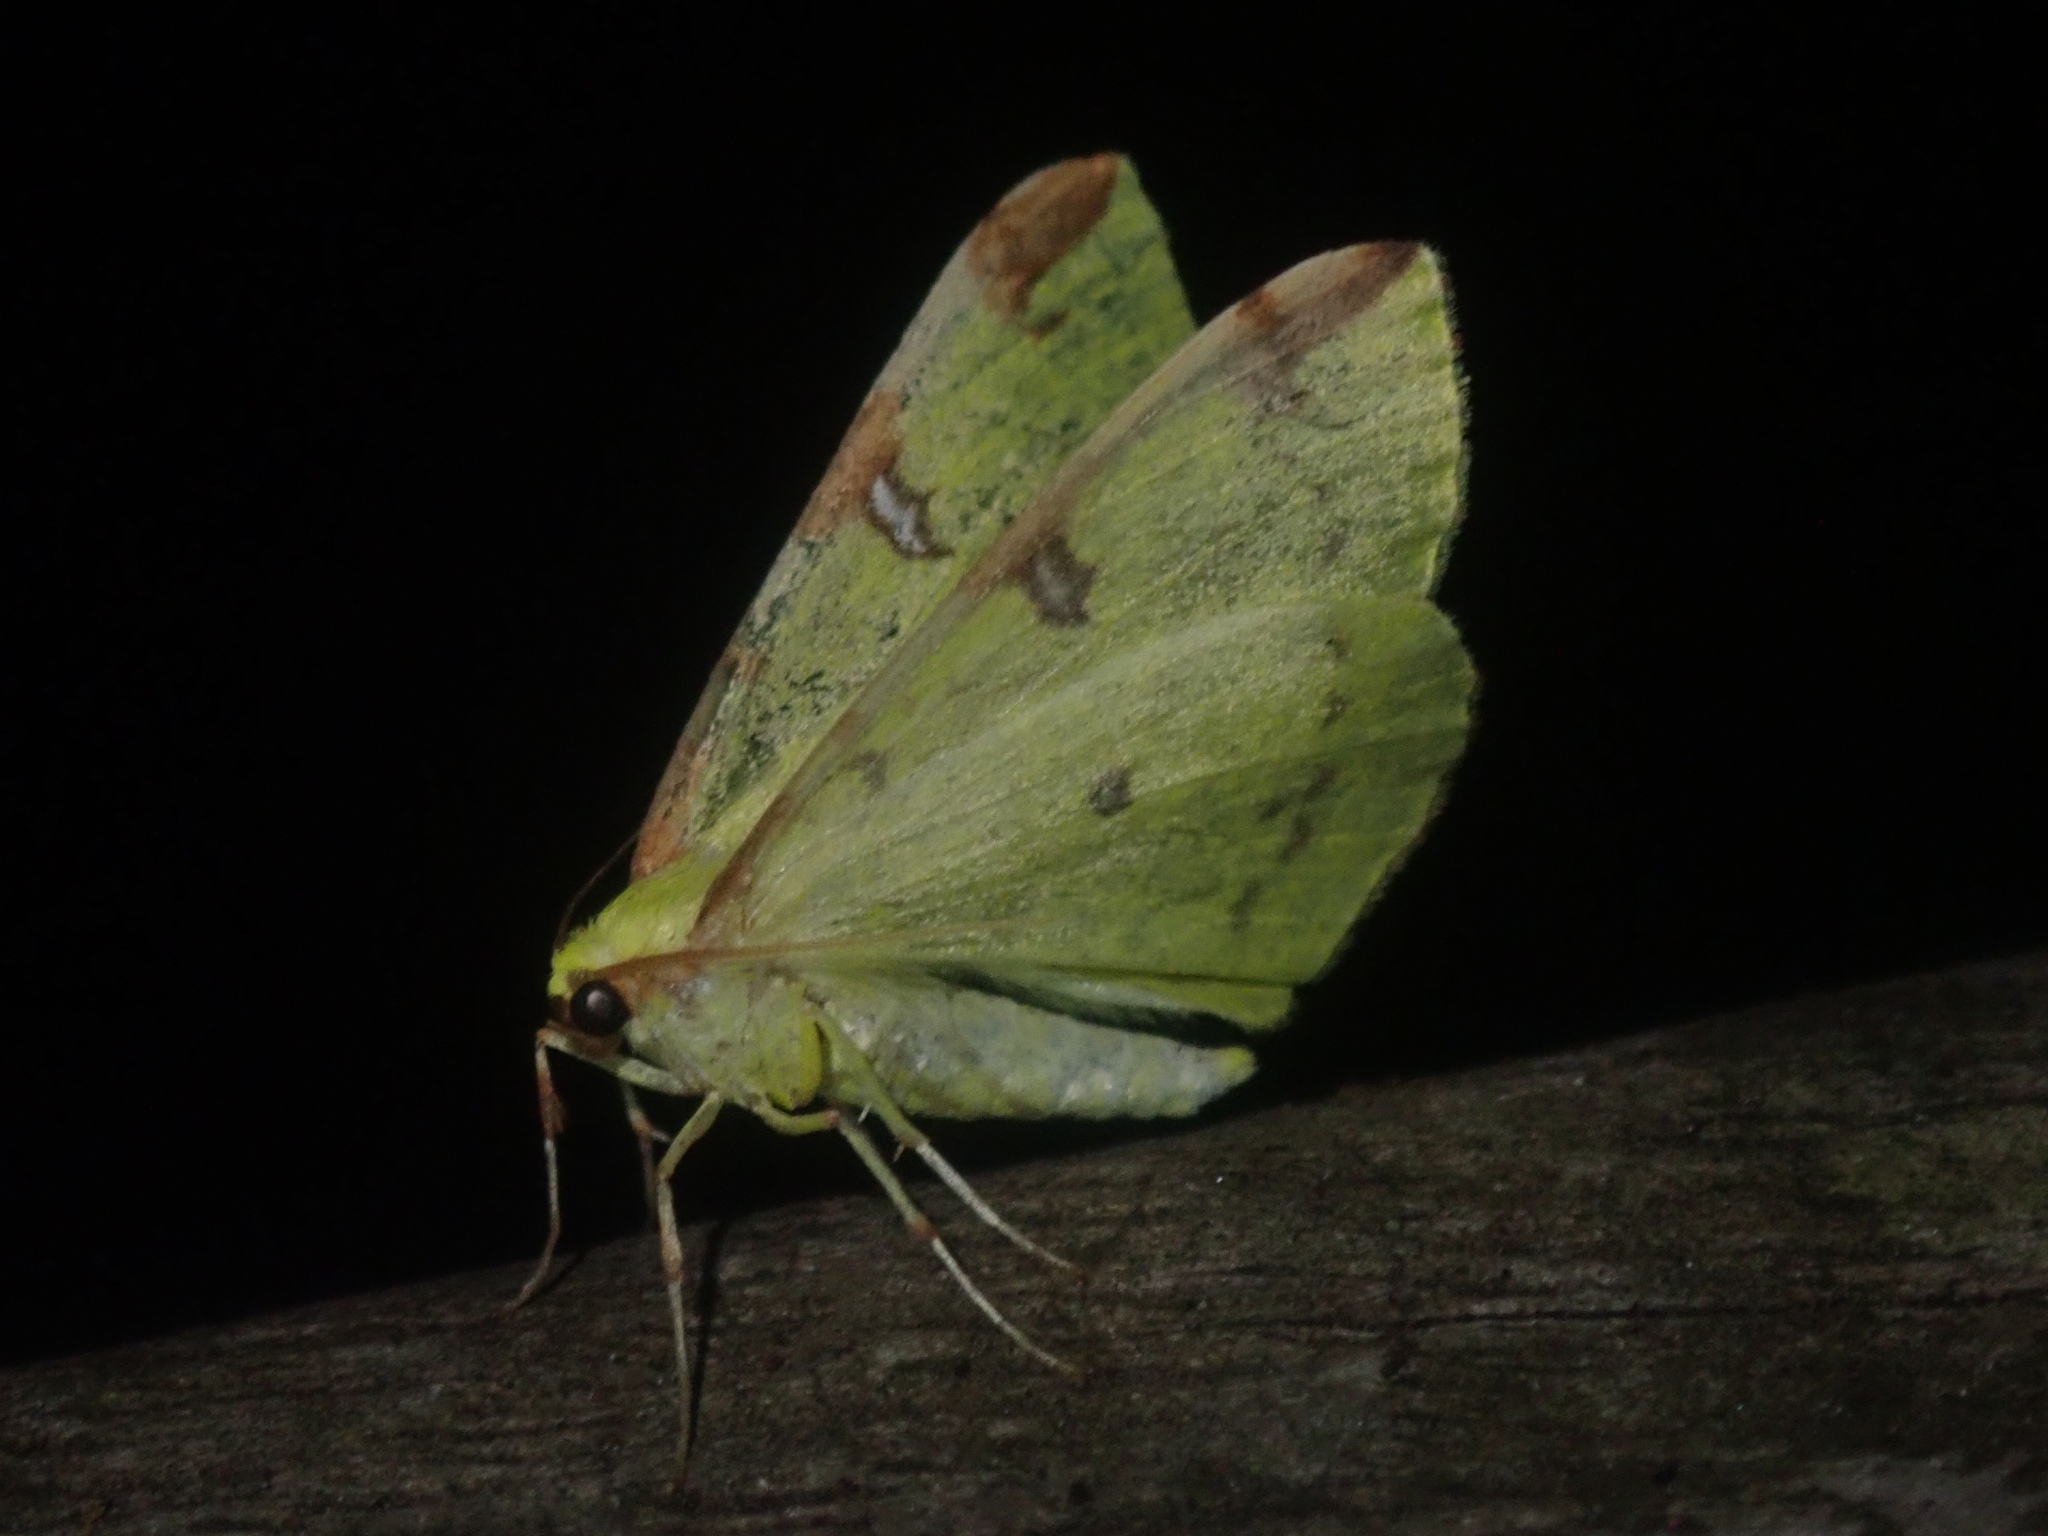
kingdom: Animalia
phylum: Arthropoda
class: Insecta
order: Lepidoptera
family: Geometridae
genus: Opisthograptis
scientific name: Opisthograptis luteolata
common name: Brimstone moth
